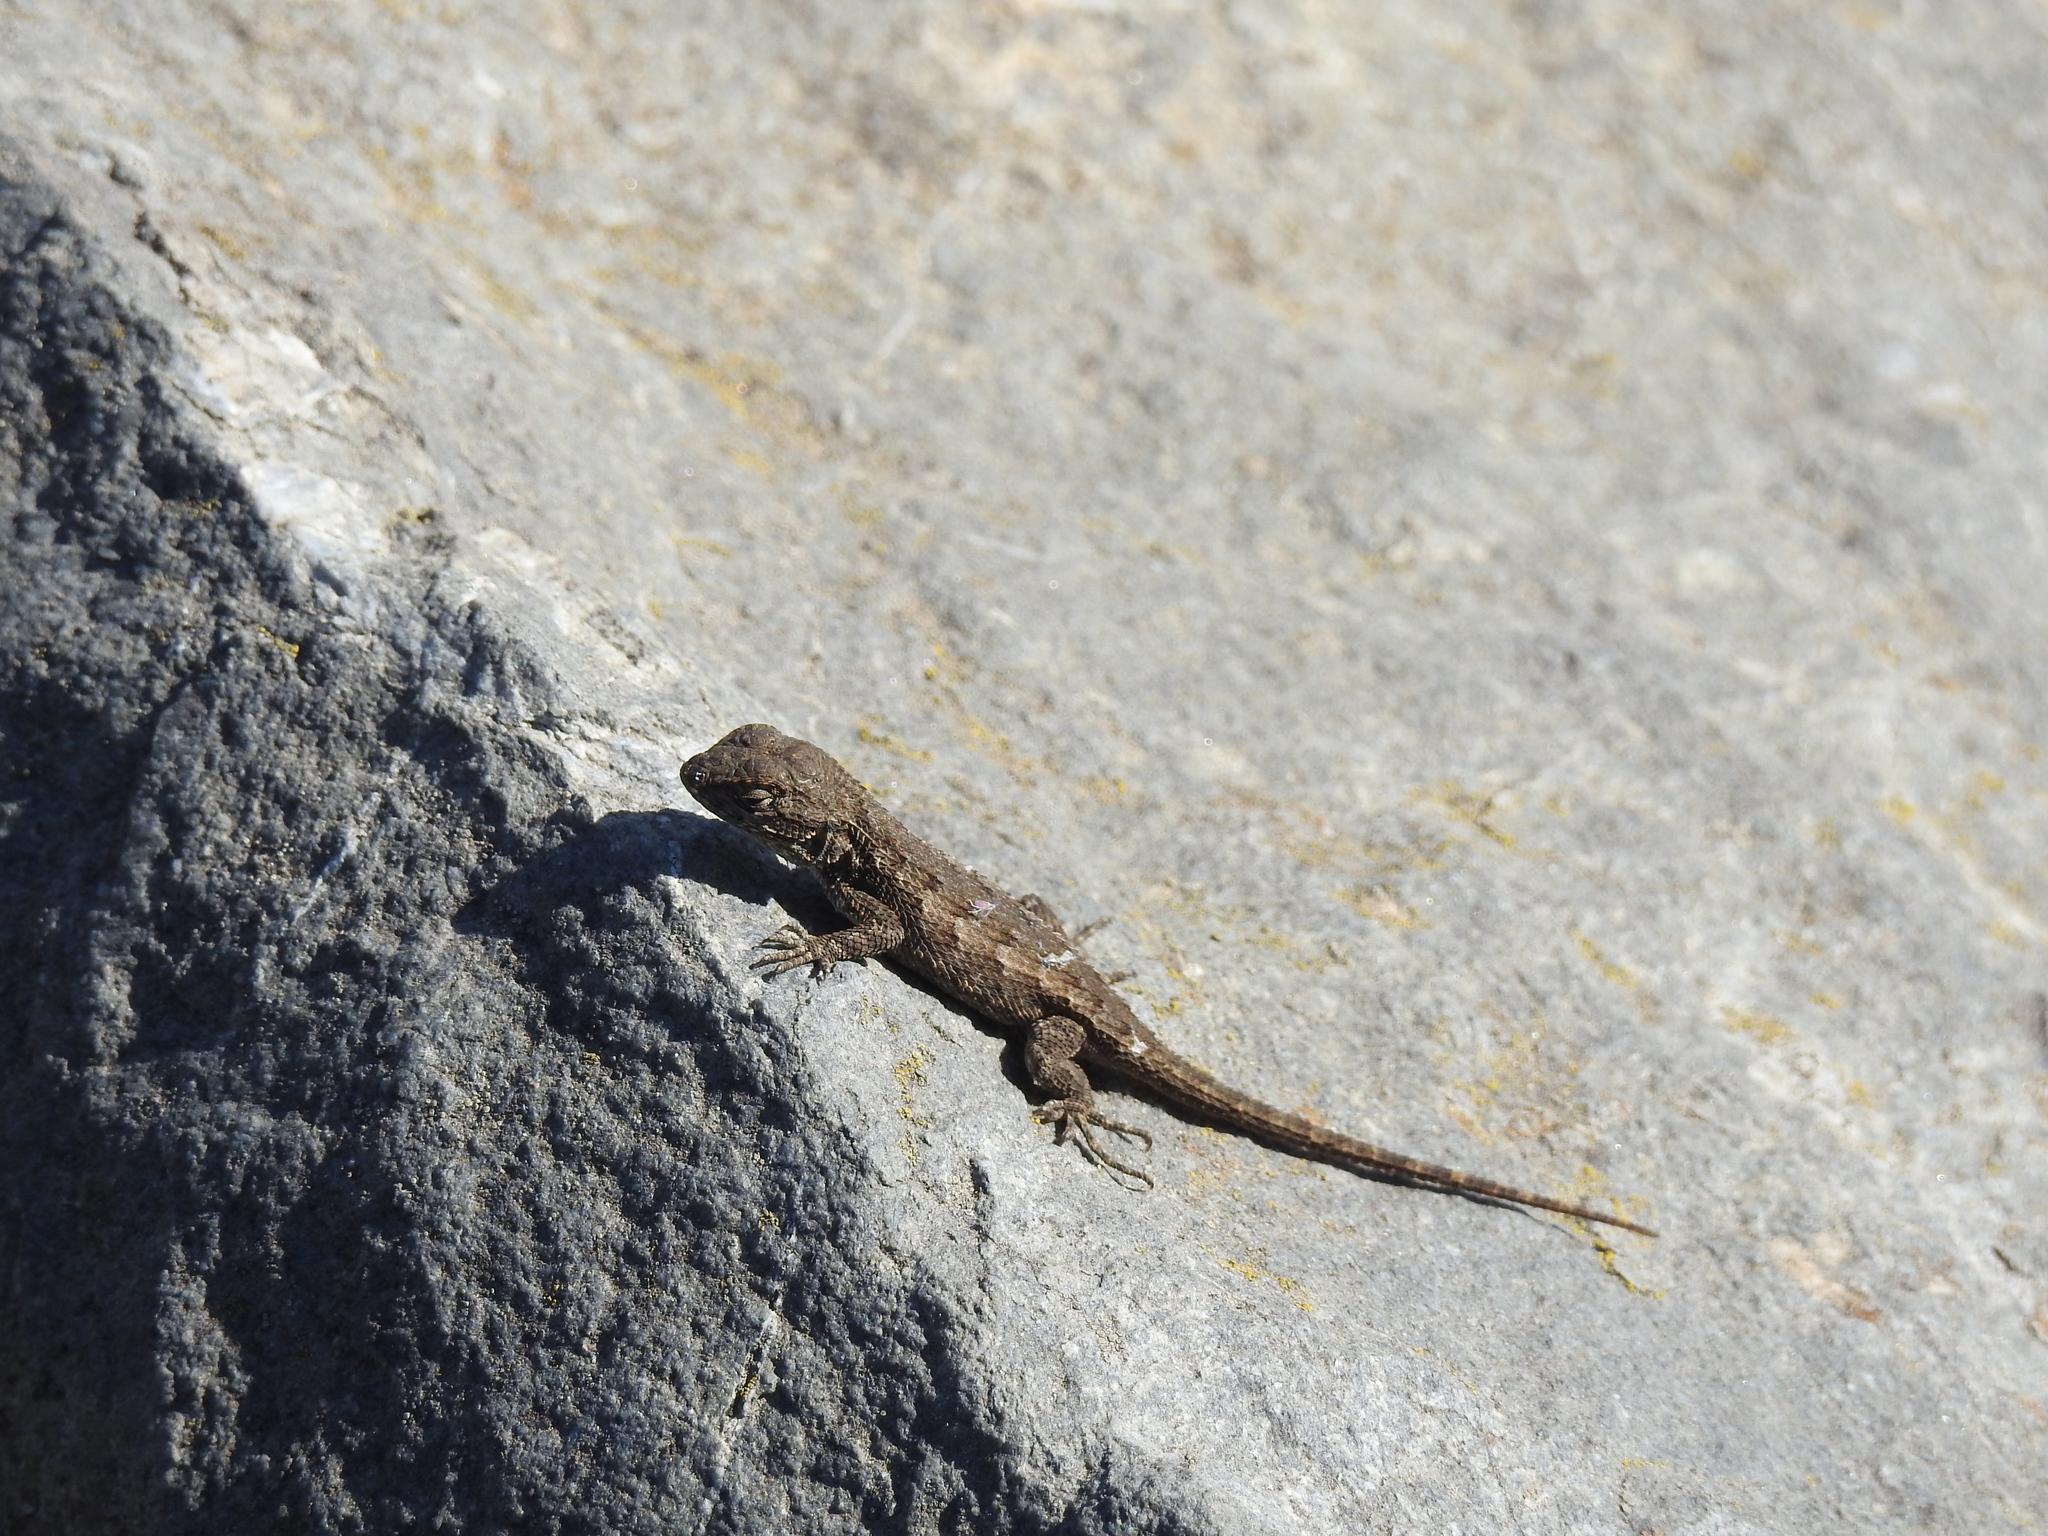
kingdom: Animalia
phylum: Chordata
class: Squamata
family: Phrynosomatidae
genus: Sceloporus
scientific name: Sceloporus occidentalis
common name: Western fence lizard
